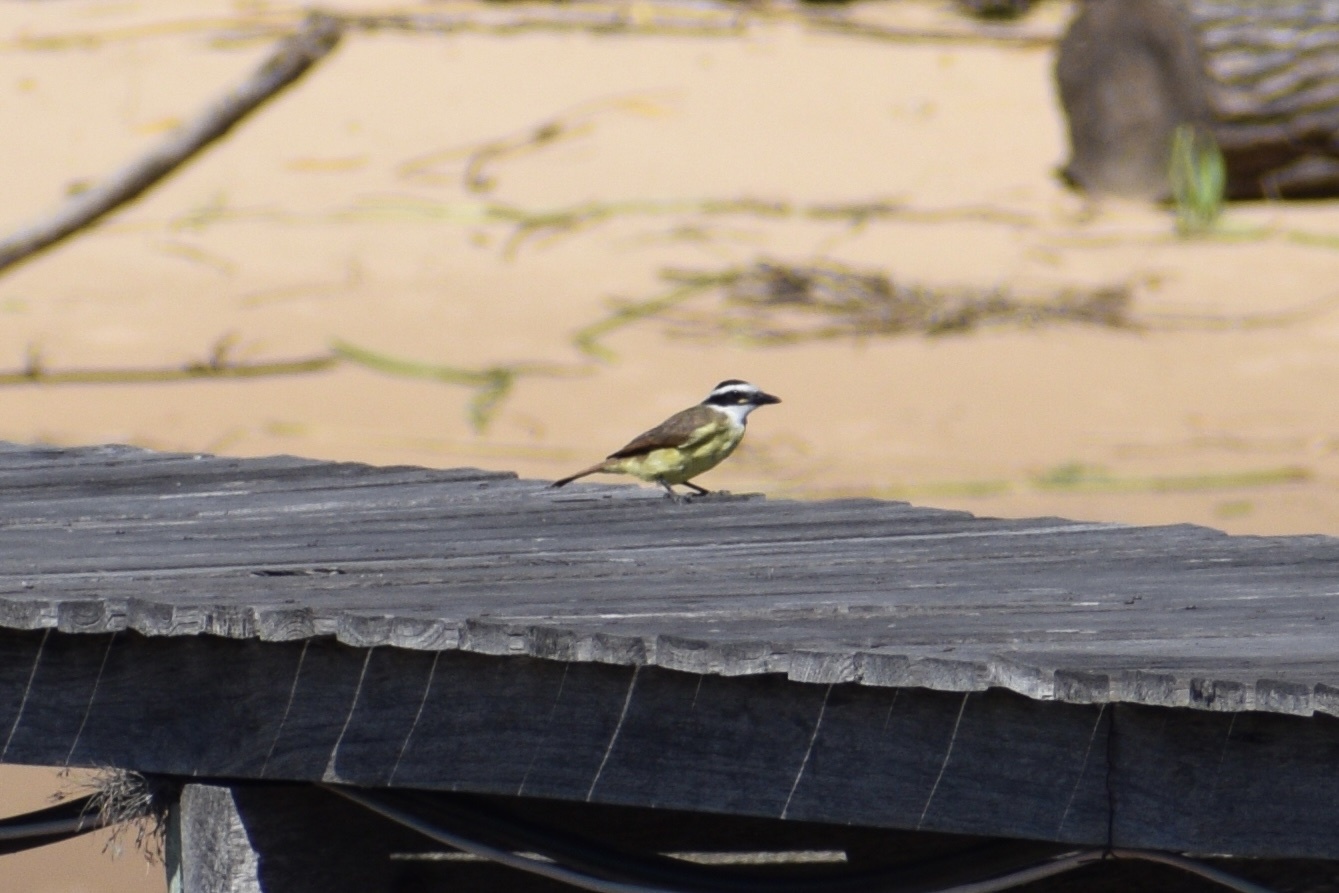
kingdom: Animalia
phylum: Chordata
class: Aves
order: Passeriformes
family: Tyrannidae
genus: Pitangus
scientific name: Pitangus sulphuratus
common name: Great kiskadee
